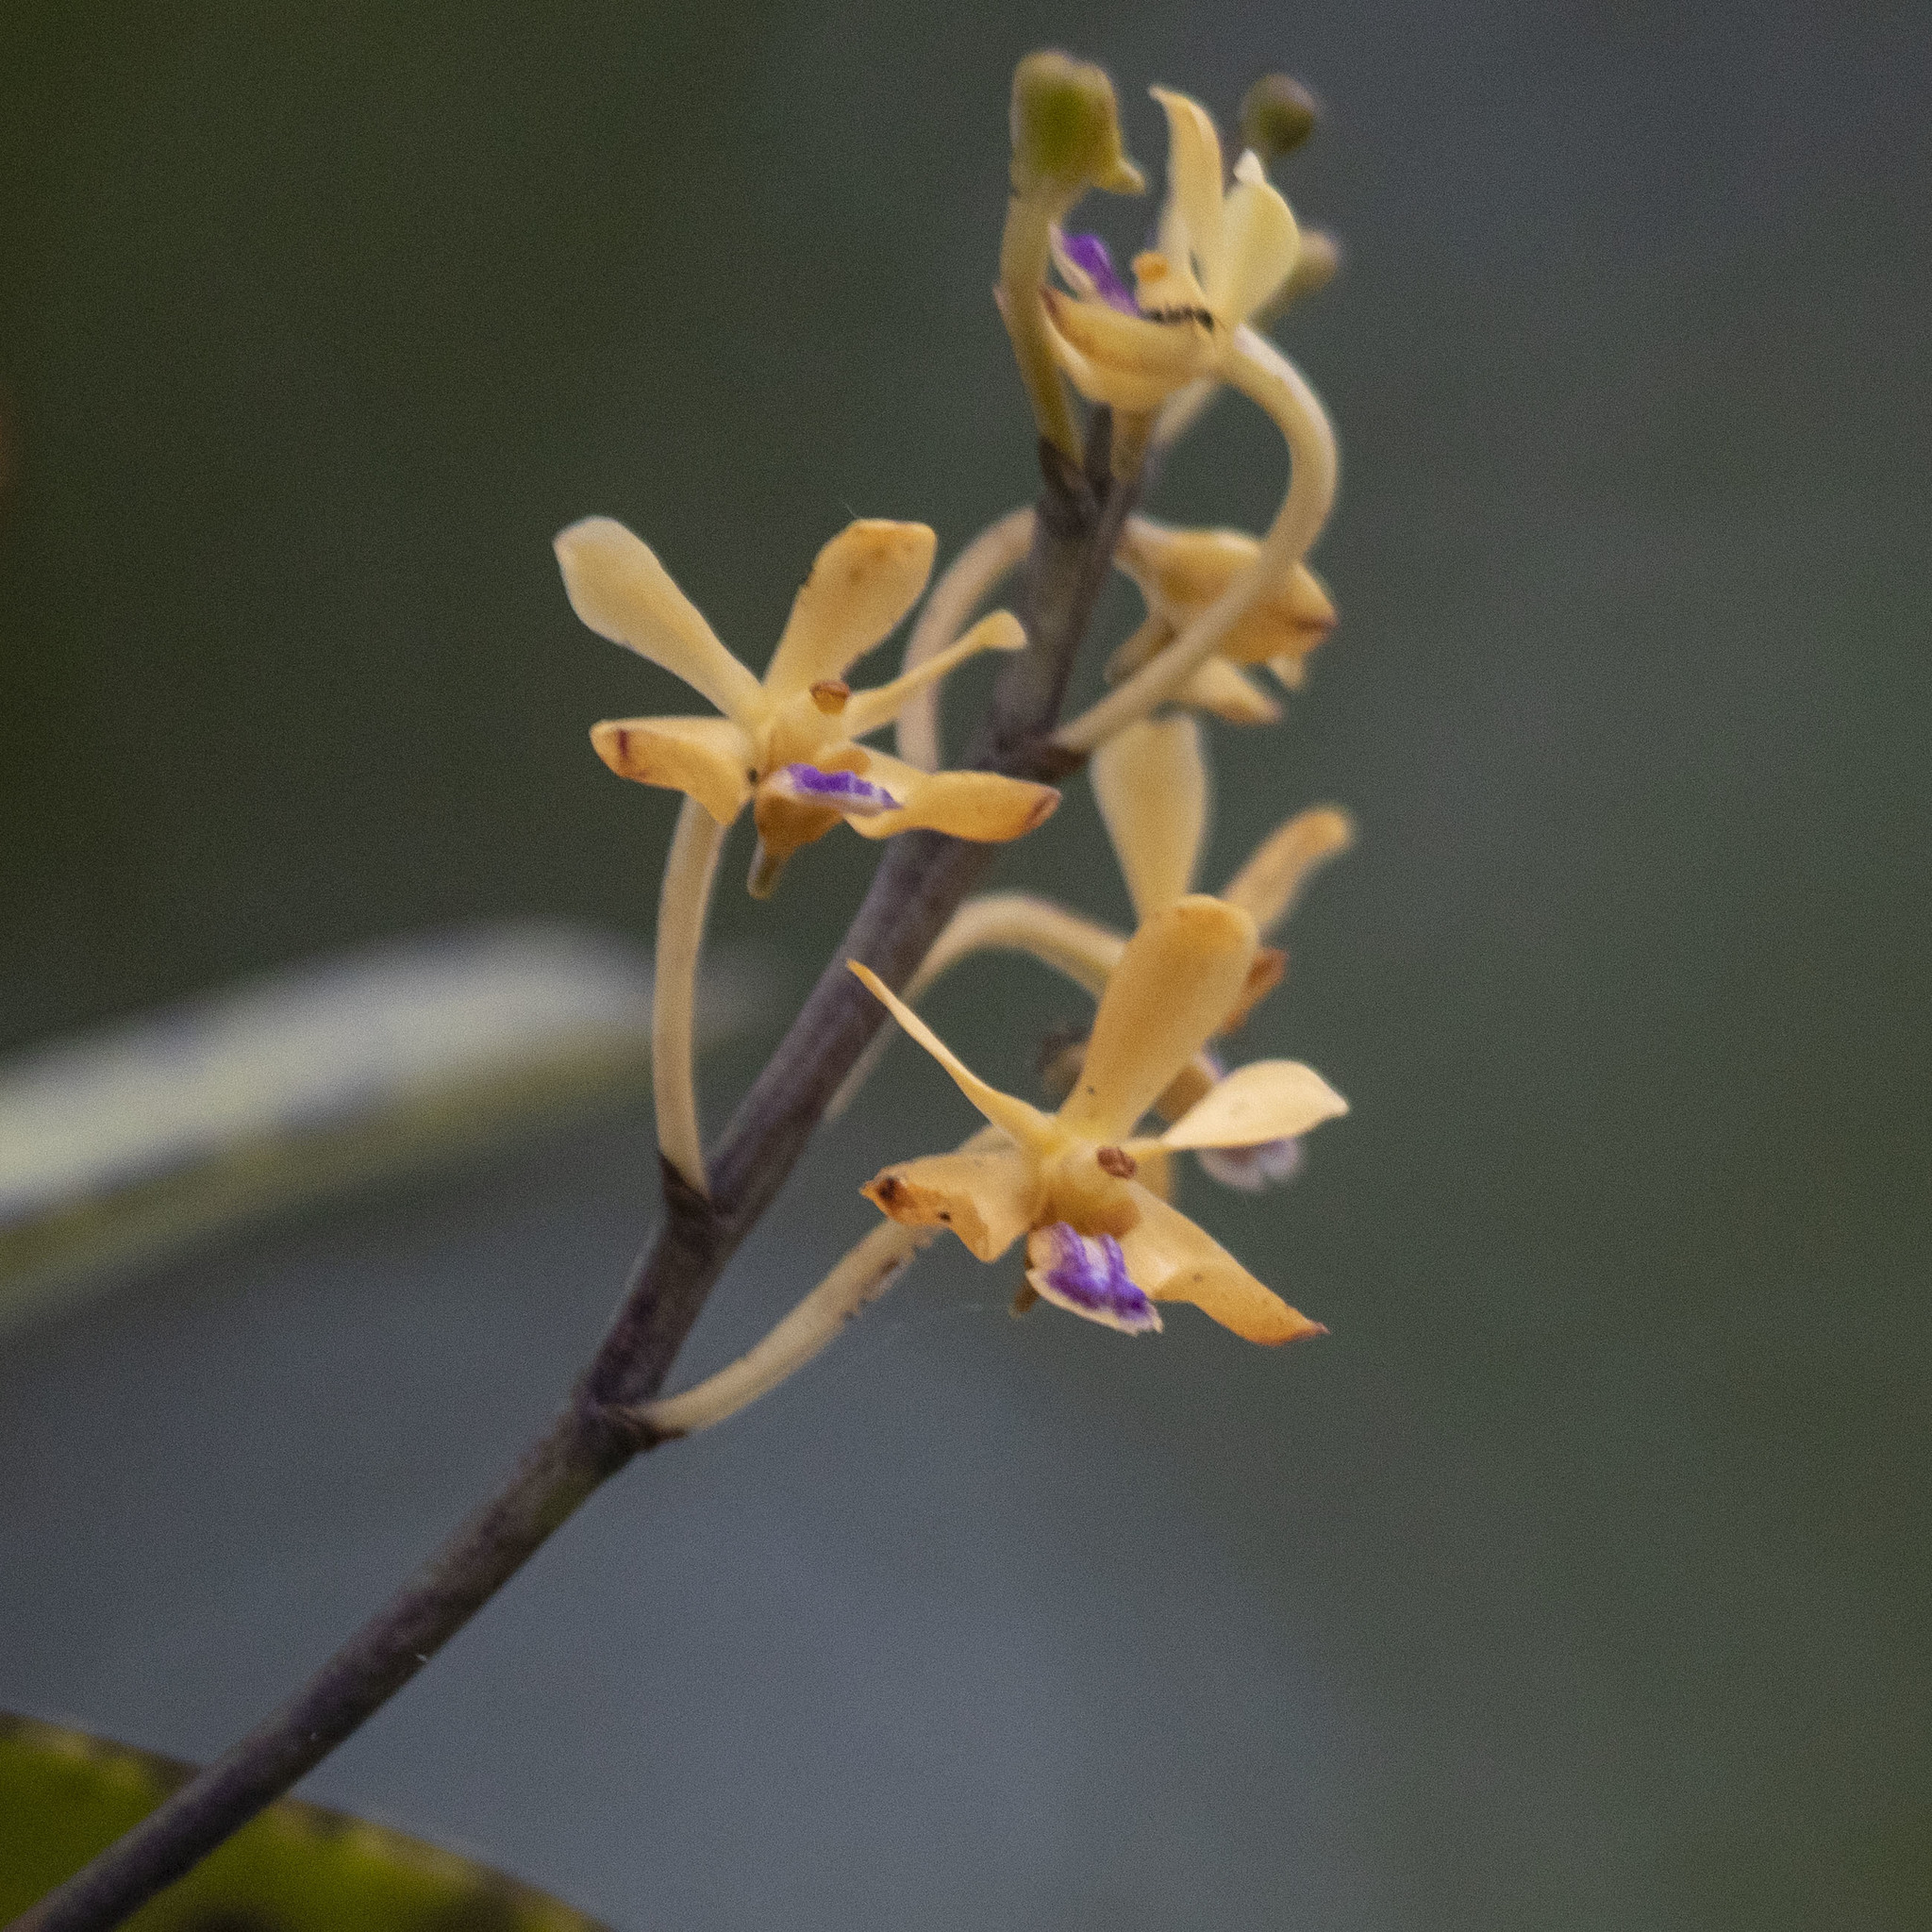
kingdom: Plantae
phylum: Tracheophyta
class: Liliopsida
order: Asparagales
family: Orchidaceae
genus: Vanda
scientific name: Vanda testacea
